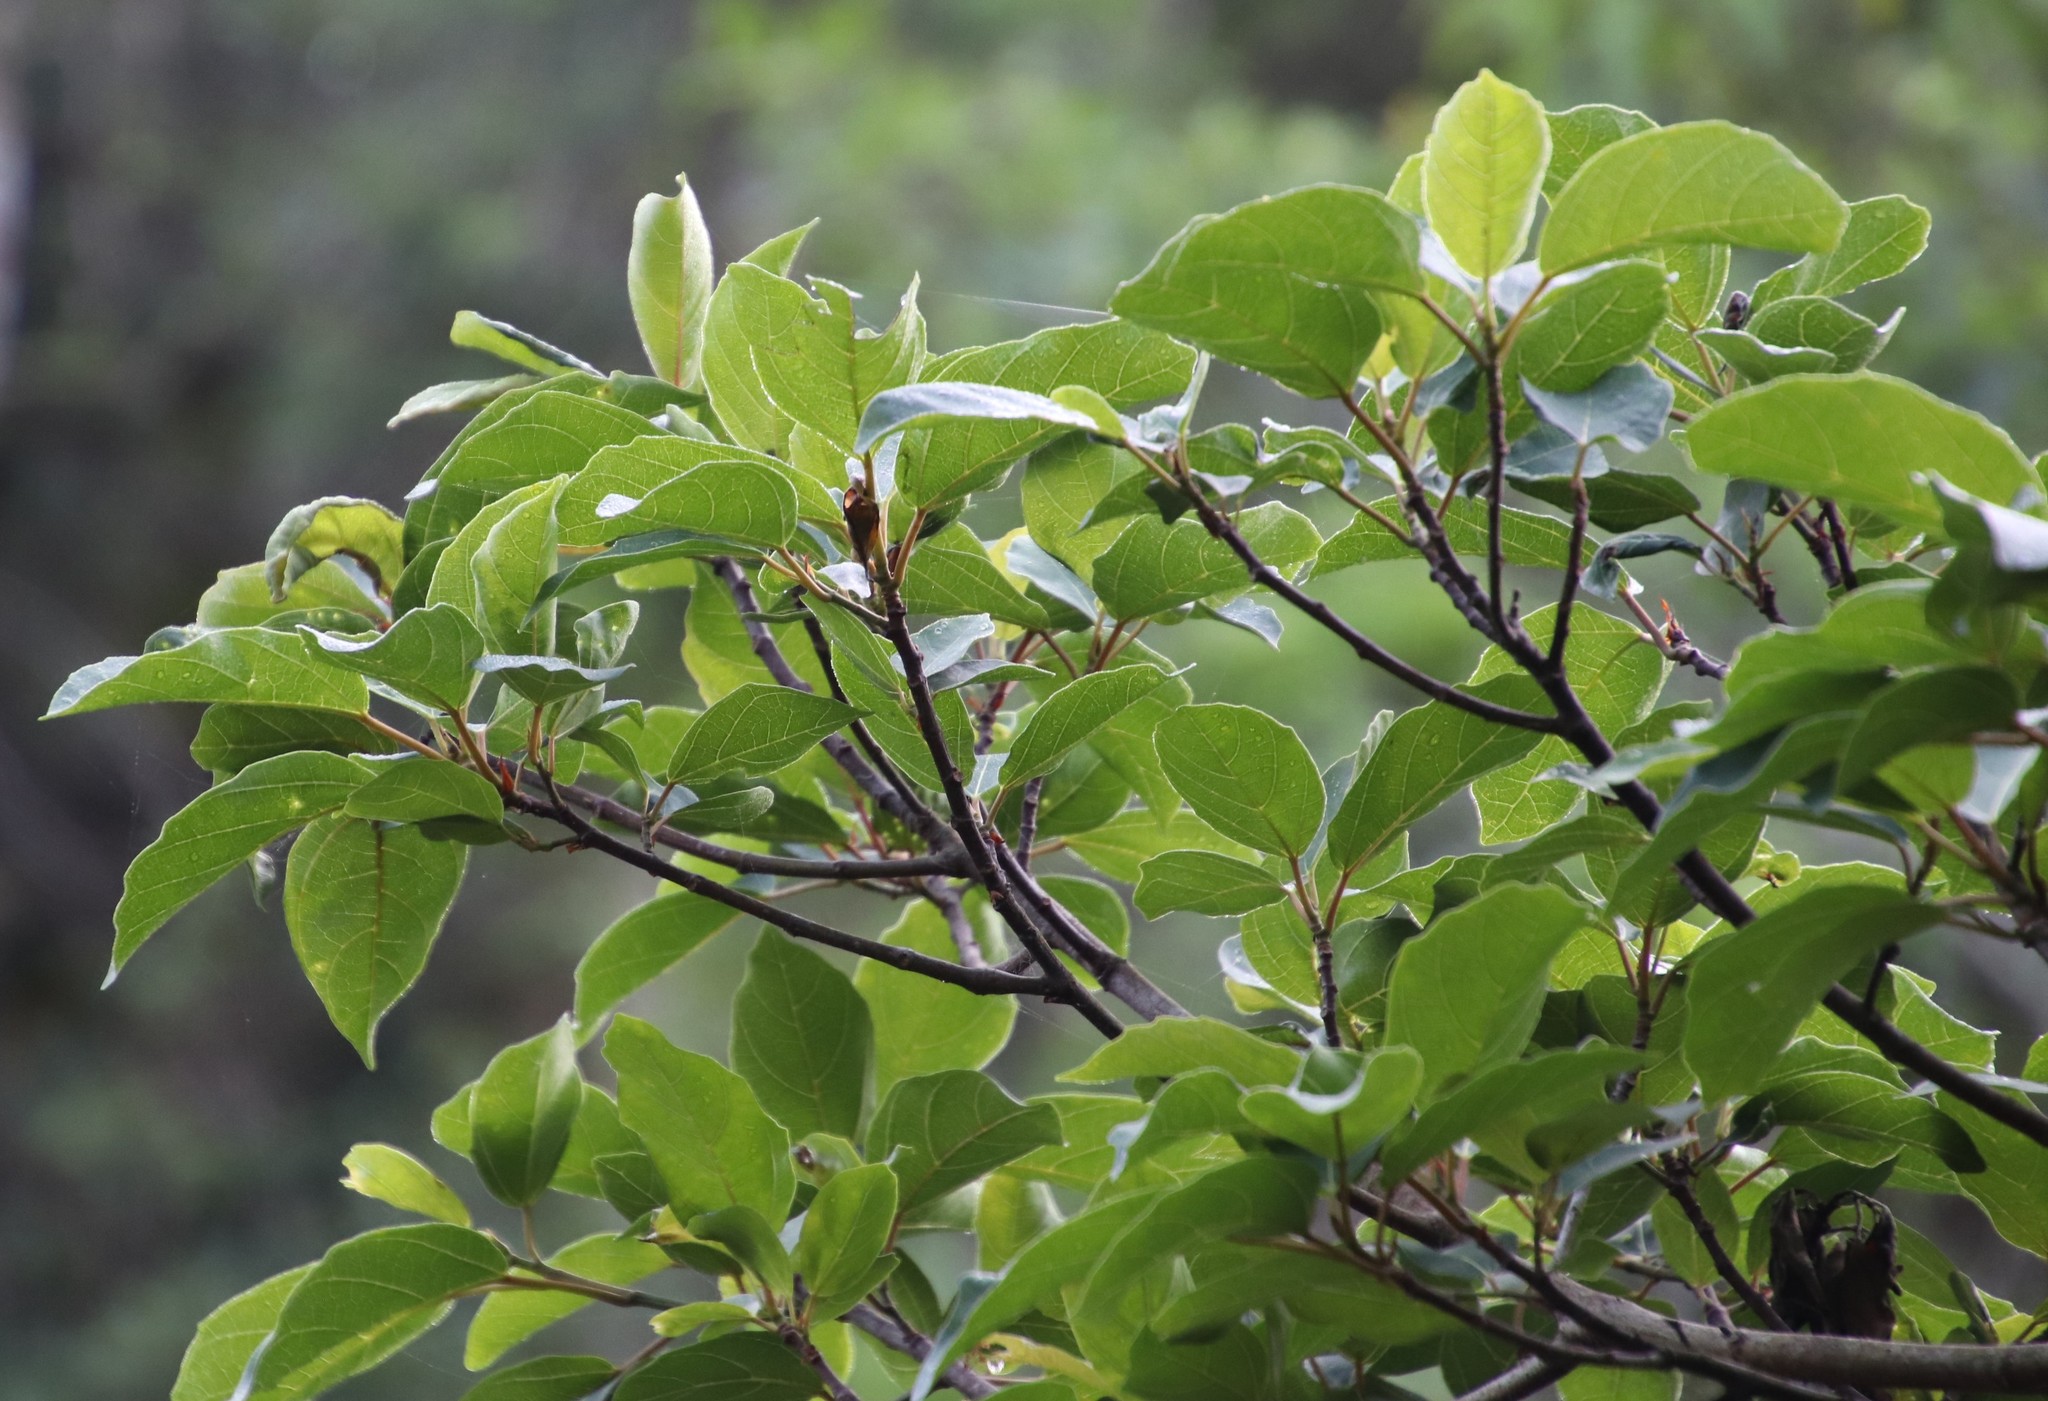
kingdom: Plantae
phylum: Tracheophyta
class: Magnoliopsida
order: Rosales
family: Moraceae
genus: Ficus
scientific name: Ficus sur
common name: Cape fig
